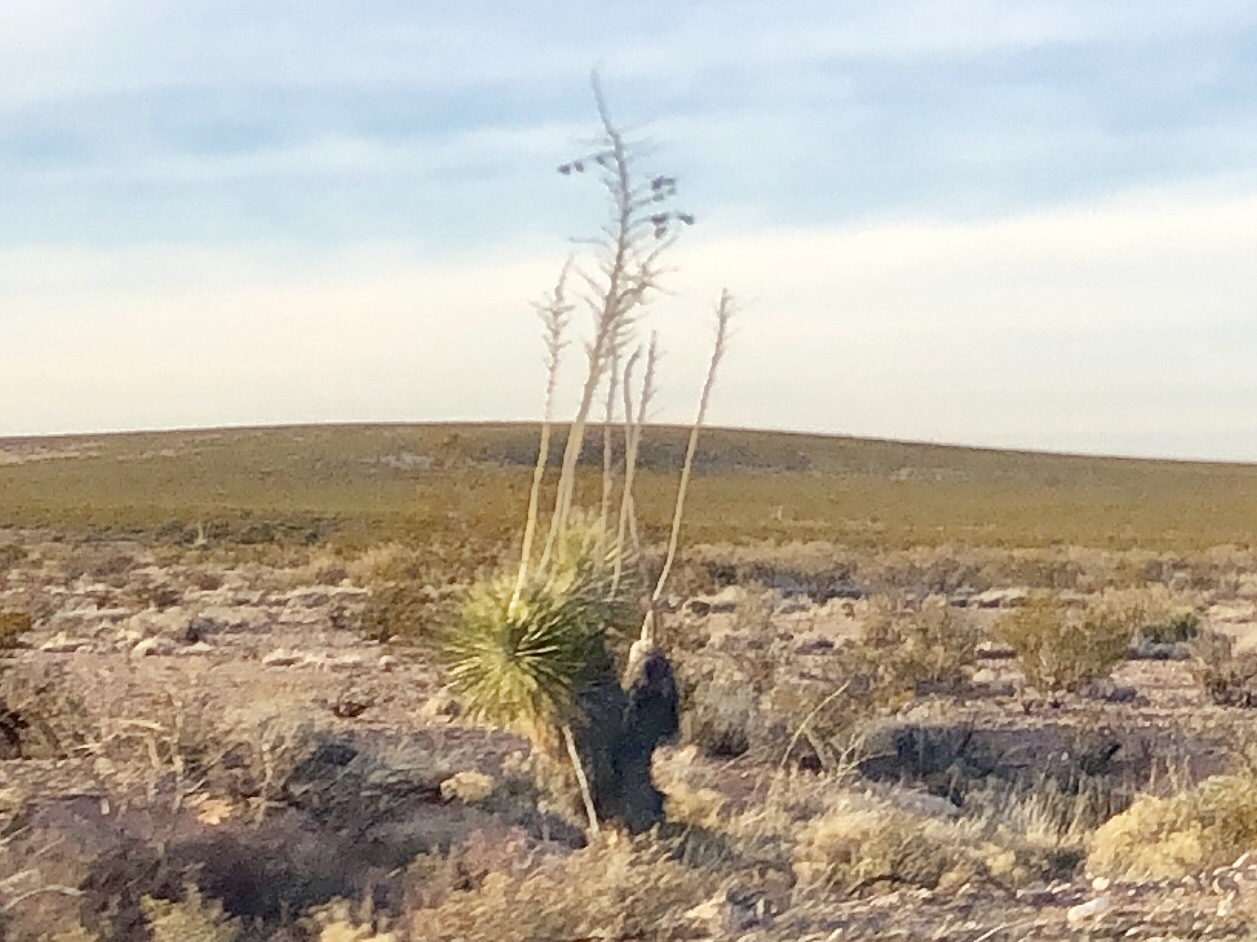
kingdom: Plantae
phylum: Tracheophyta
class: Liliopsida
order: Asparagales
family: Asparagaceae
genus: Yucca
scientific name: Yucca elata
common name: Palmella
